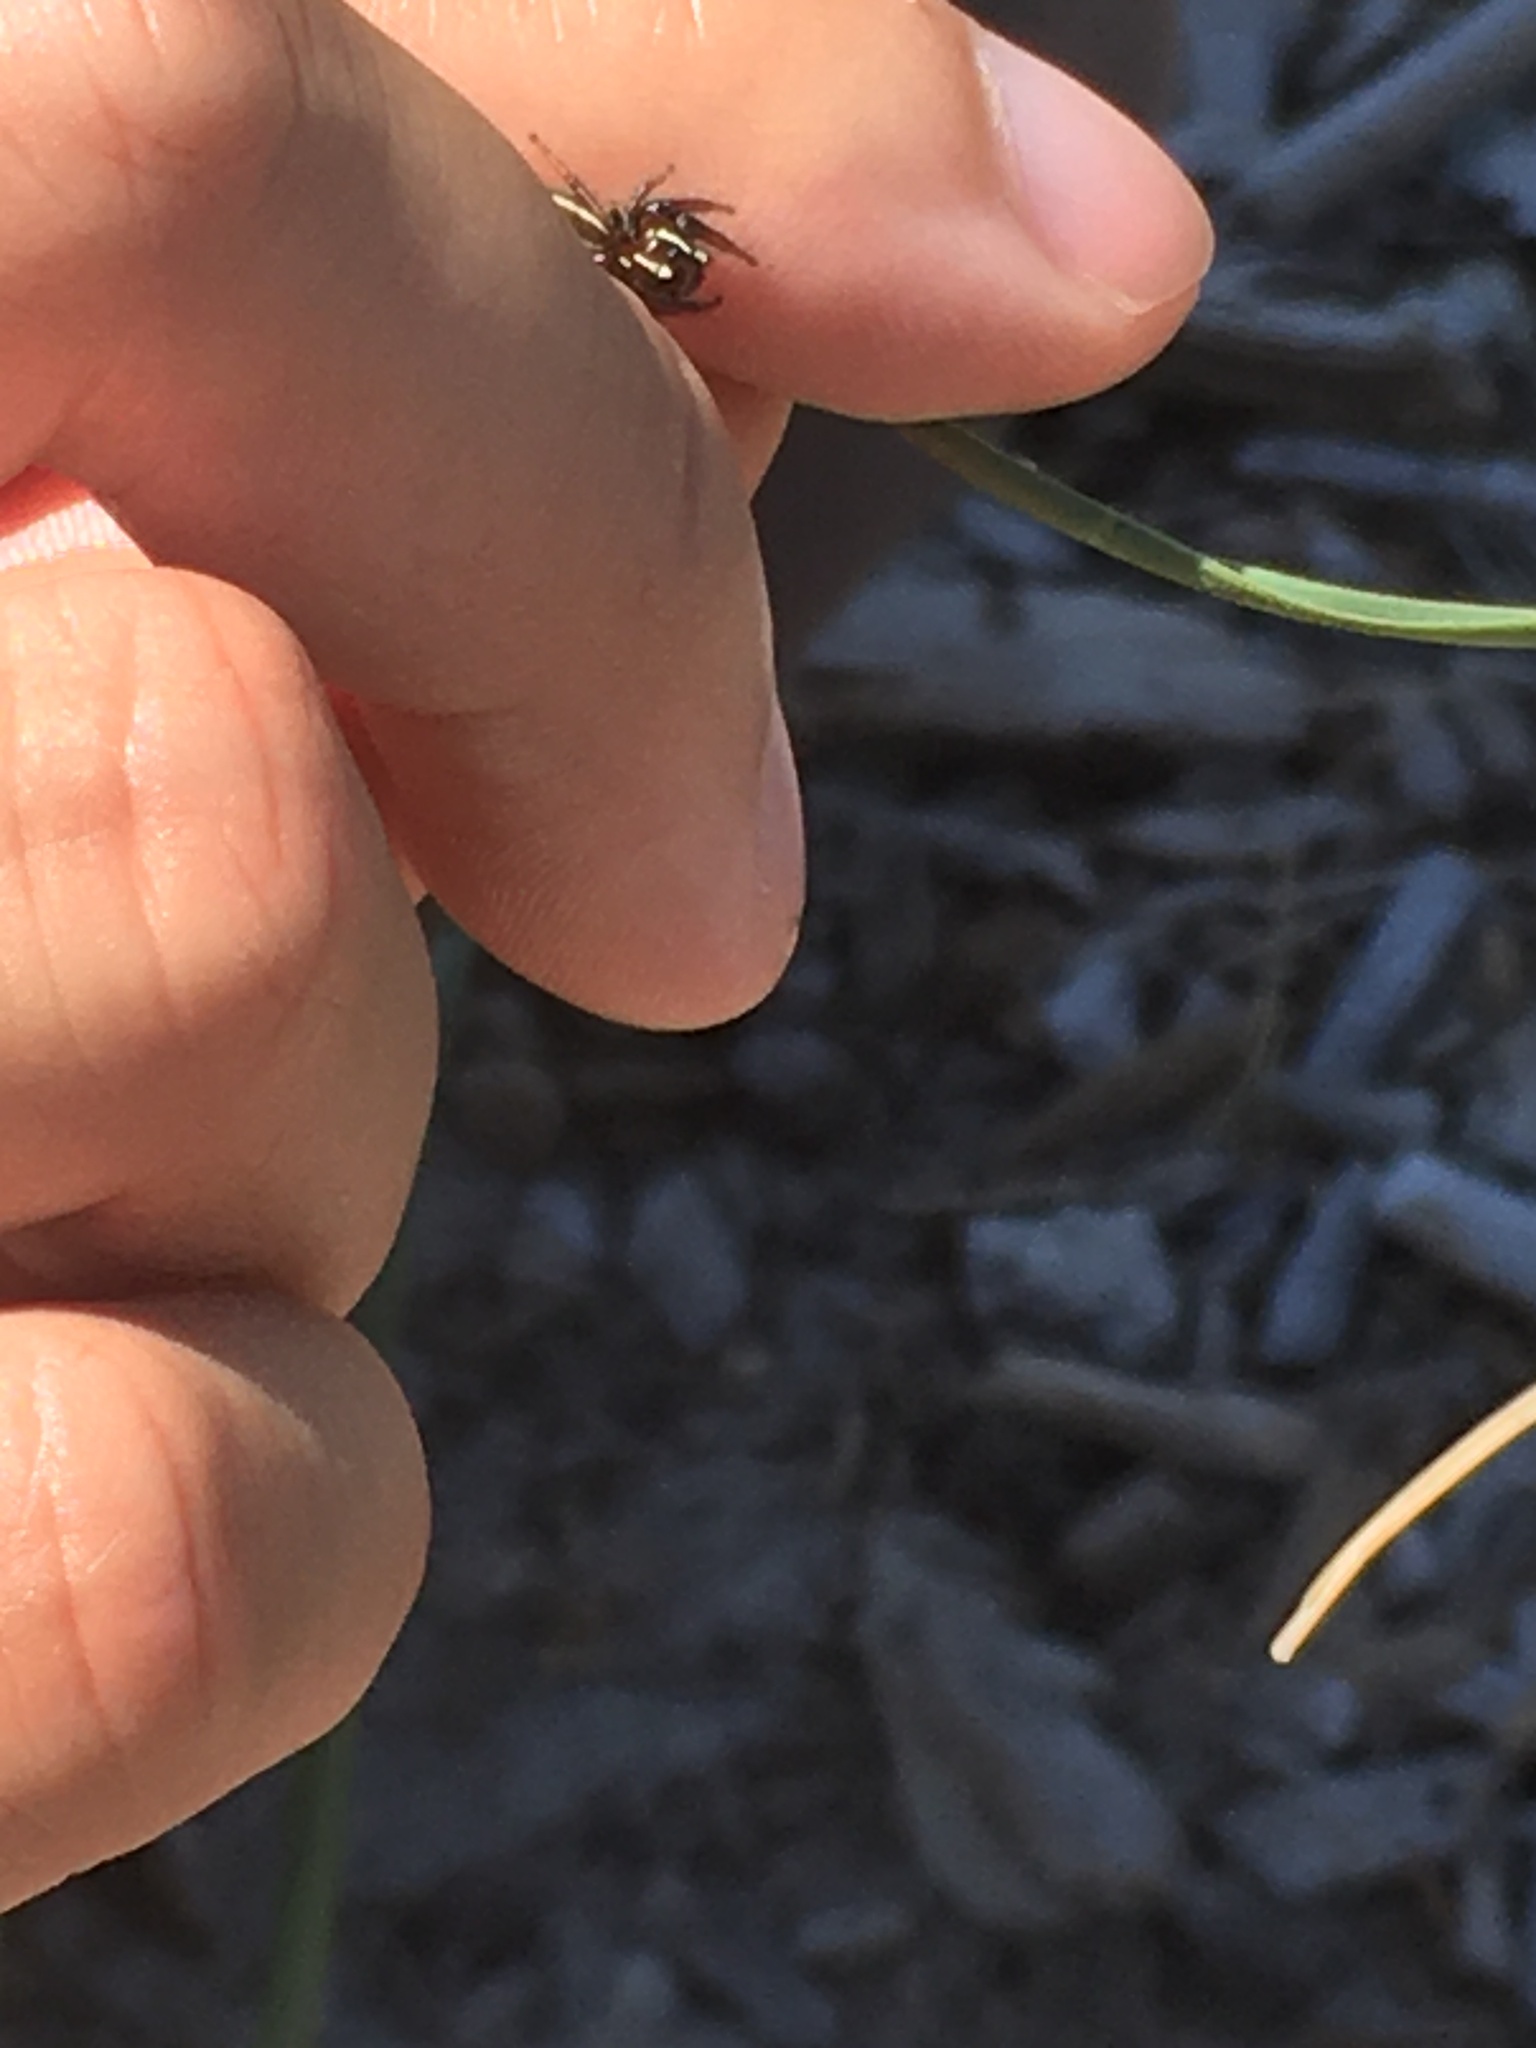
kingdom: Animalia
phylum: Arthropoda
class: Arachnida
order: Araneae
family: Salticidae
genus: Colonus
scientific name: Colonus puerperus
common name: Jumping spiders
